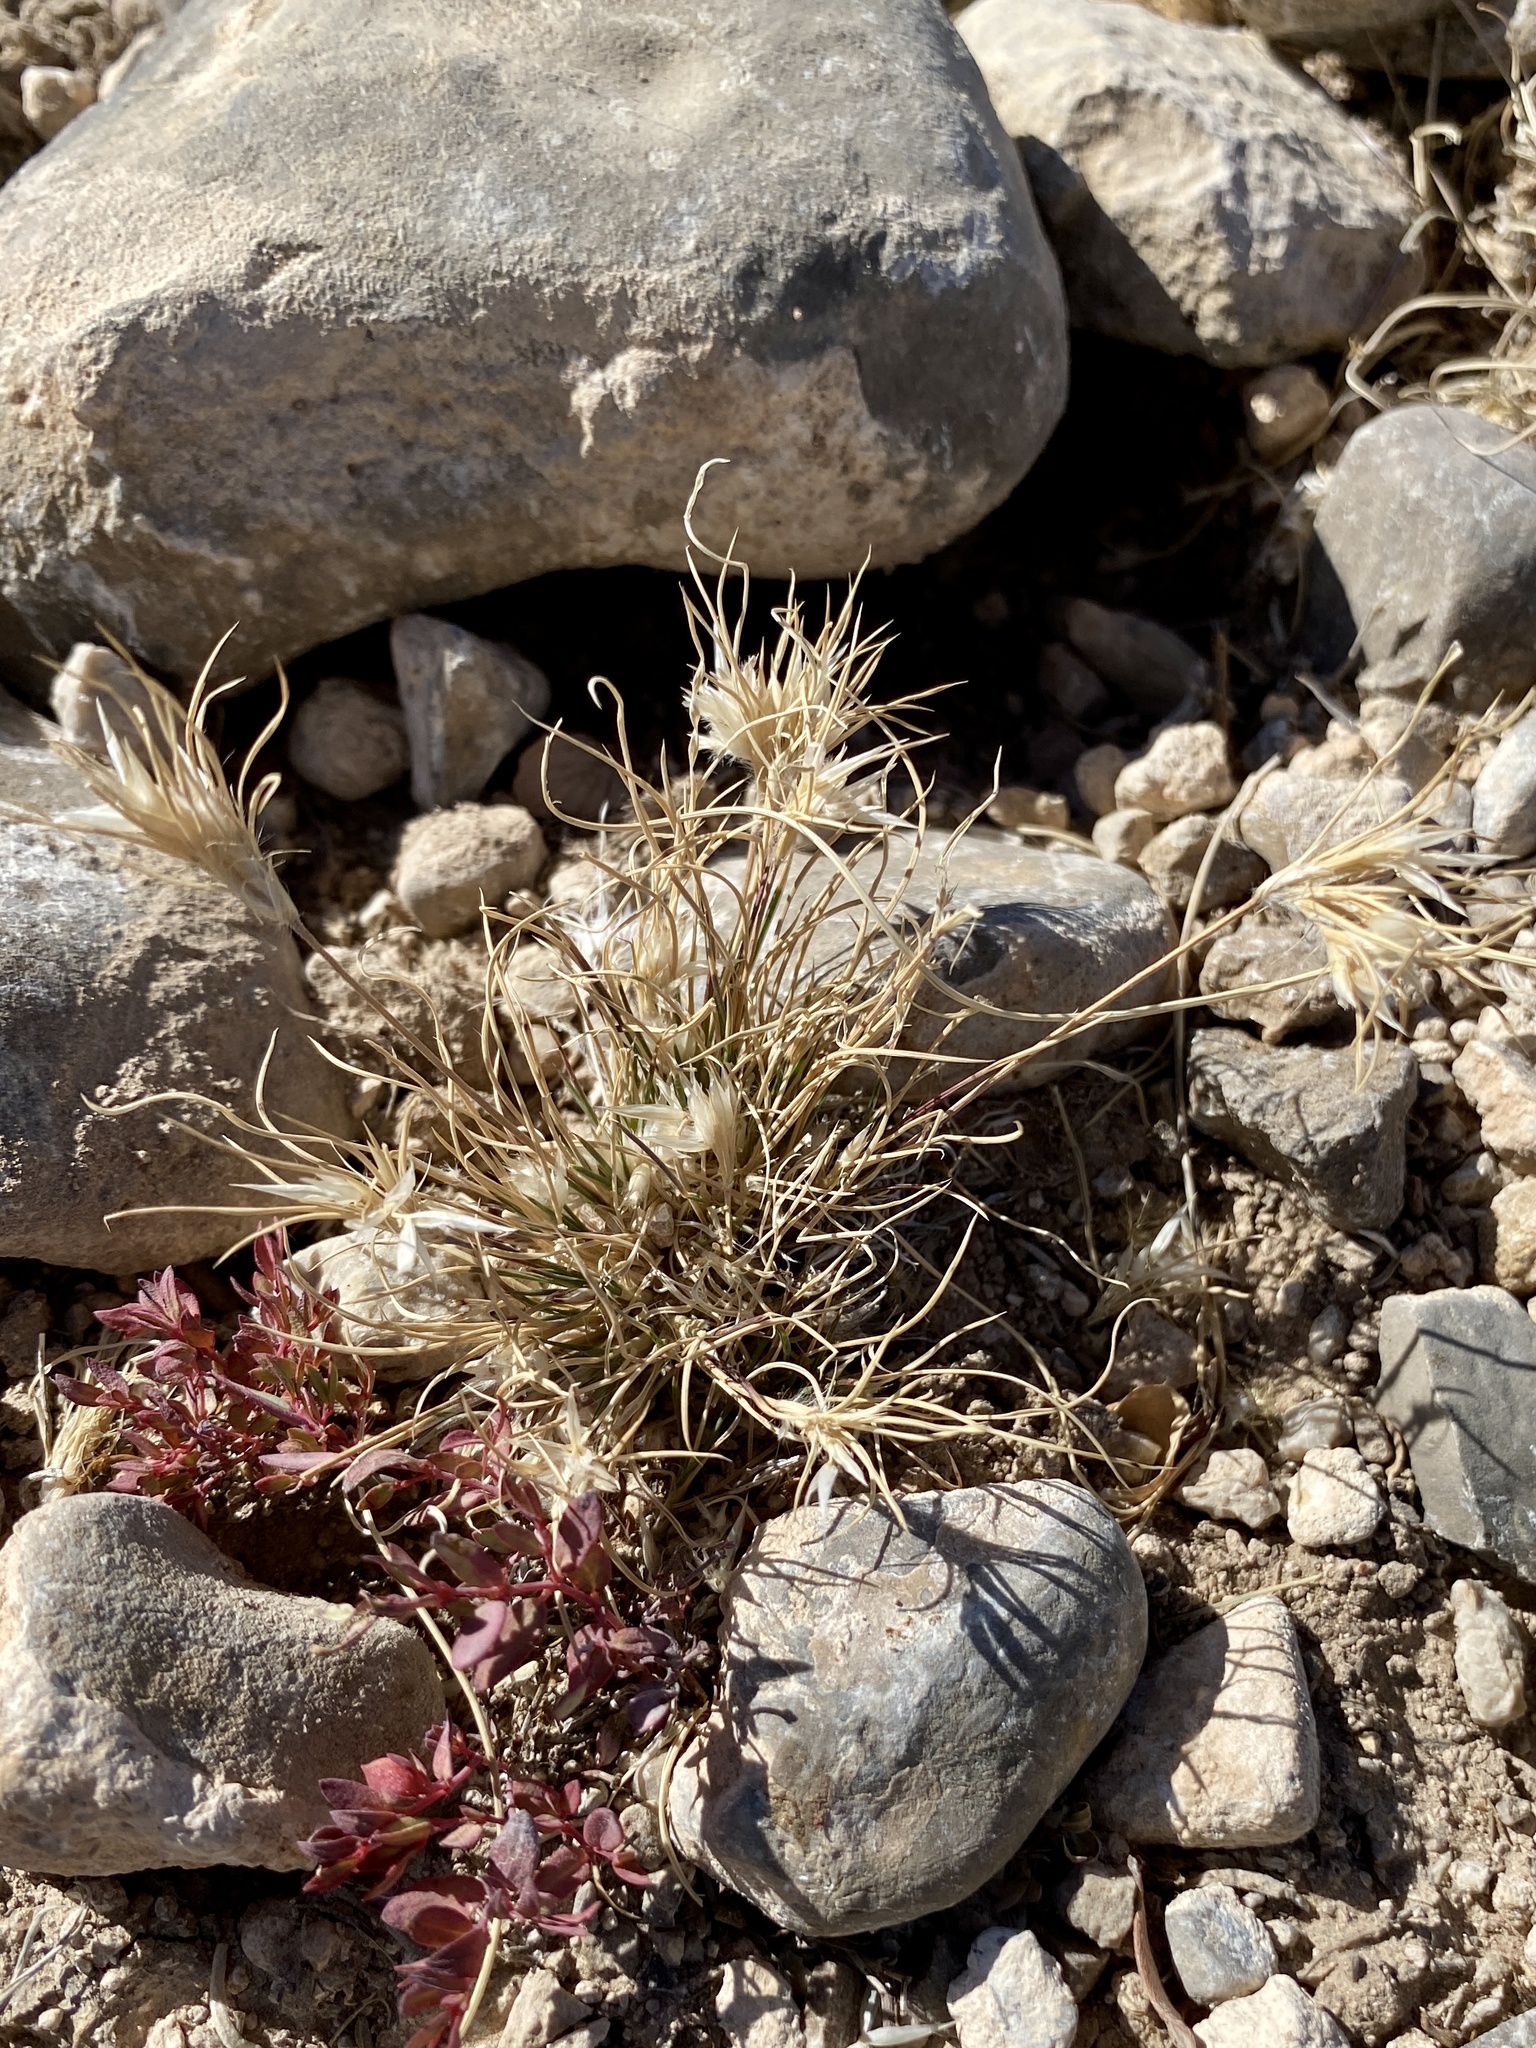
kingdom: Plantae
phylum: Tracheophyta
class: Liliopsida
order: Poales
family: Poaceae
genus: Dasyochloa
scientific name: Dasyochloa pulchella
